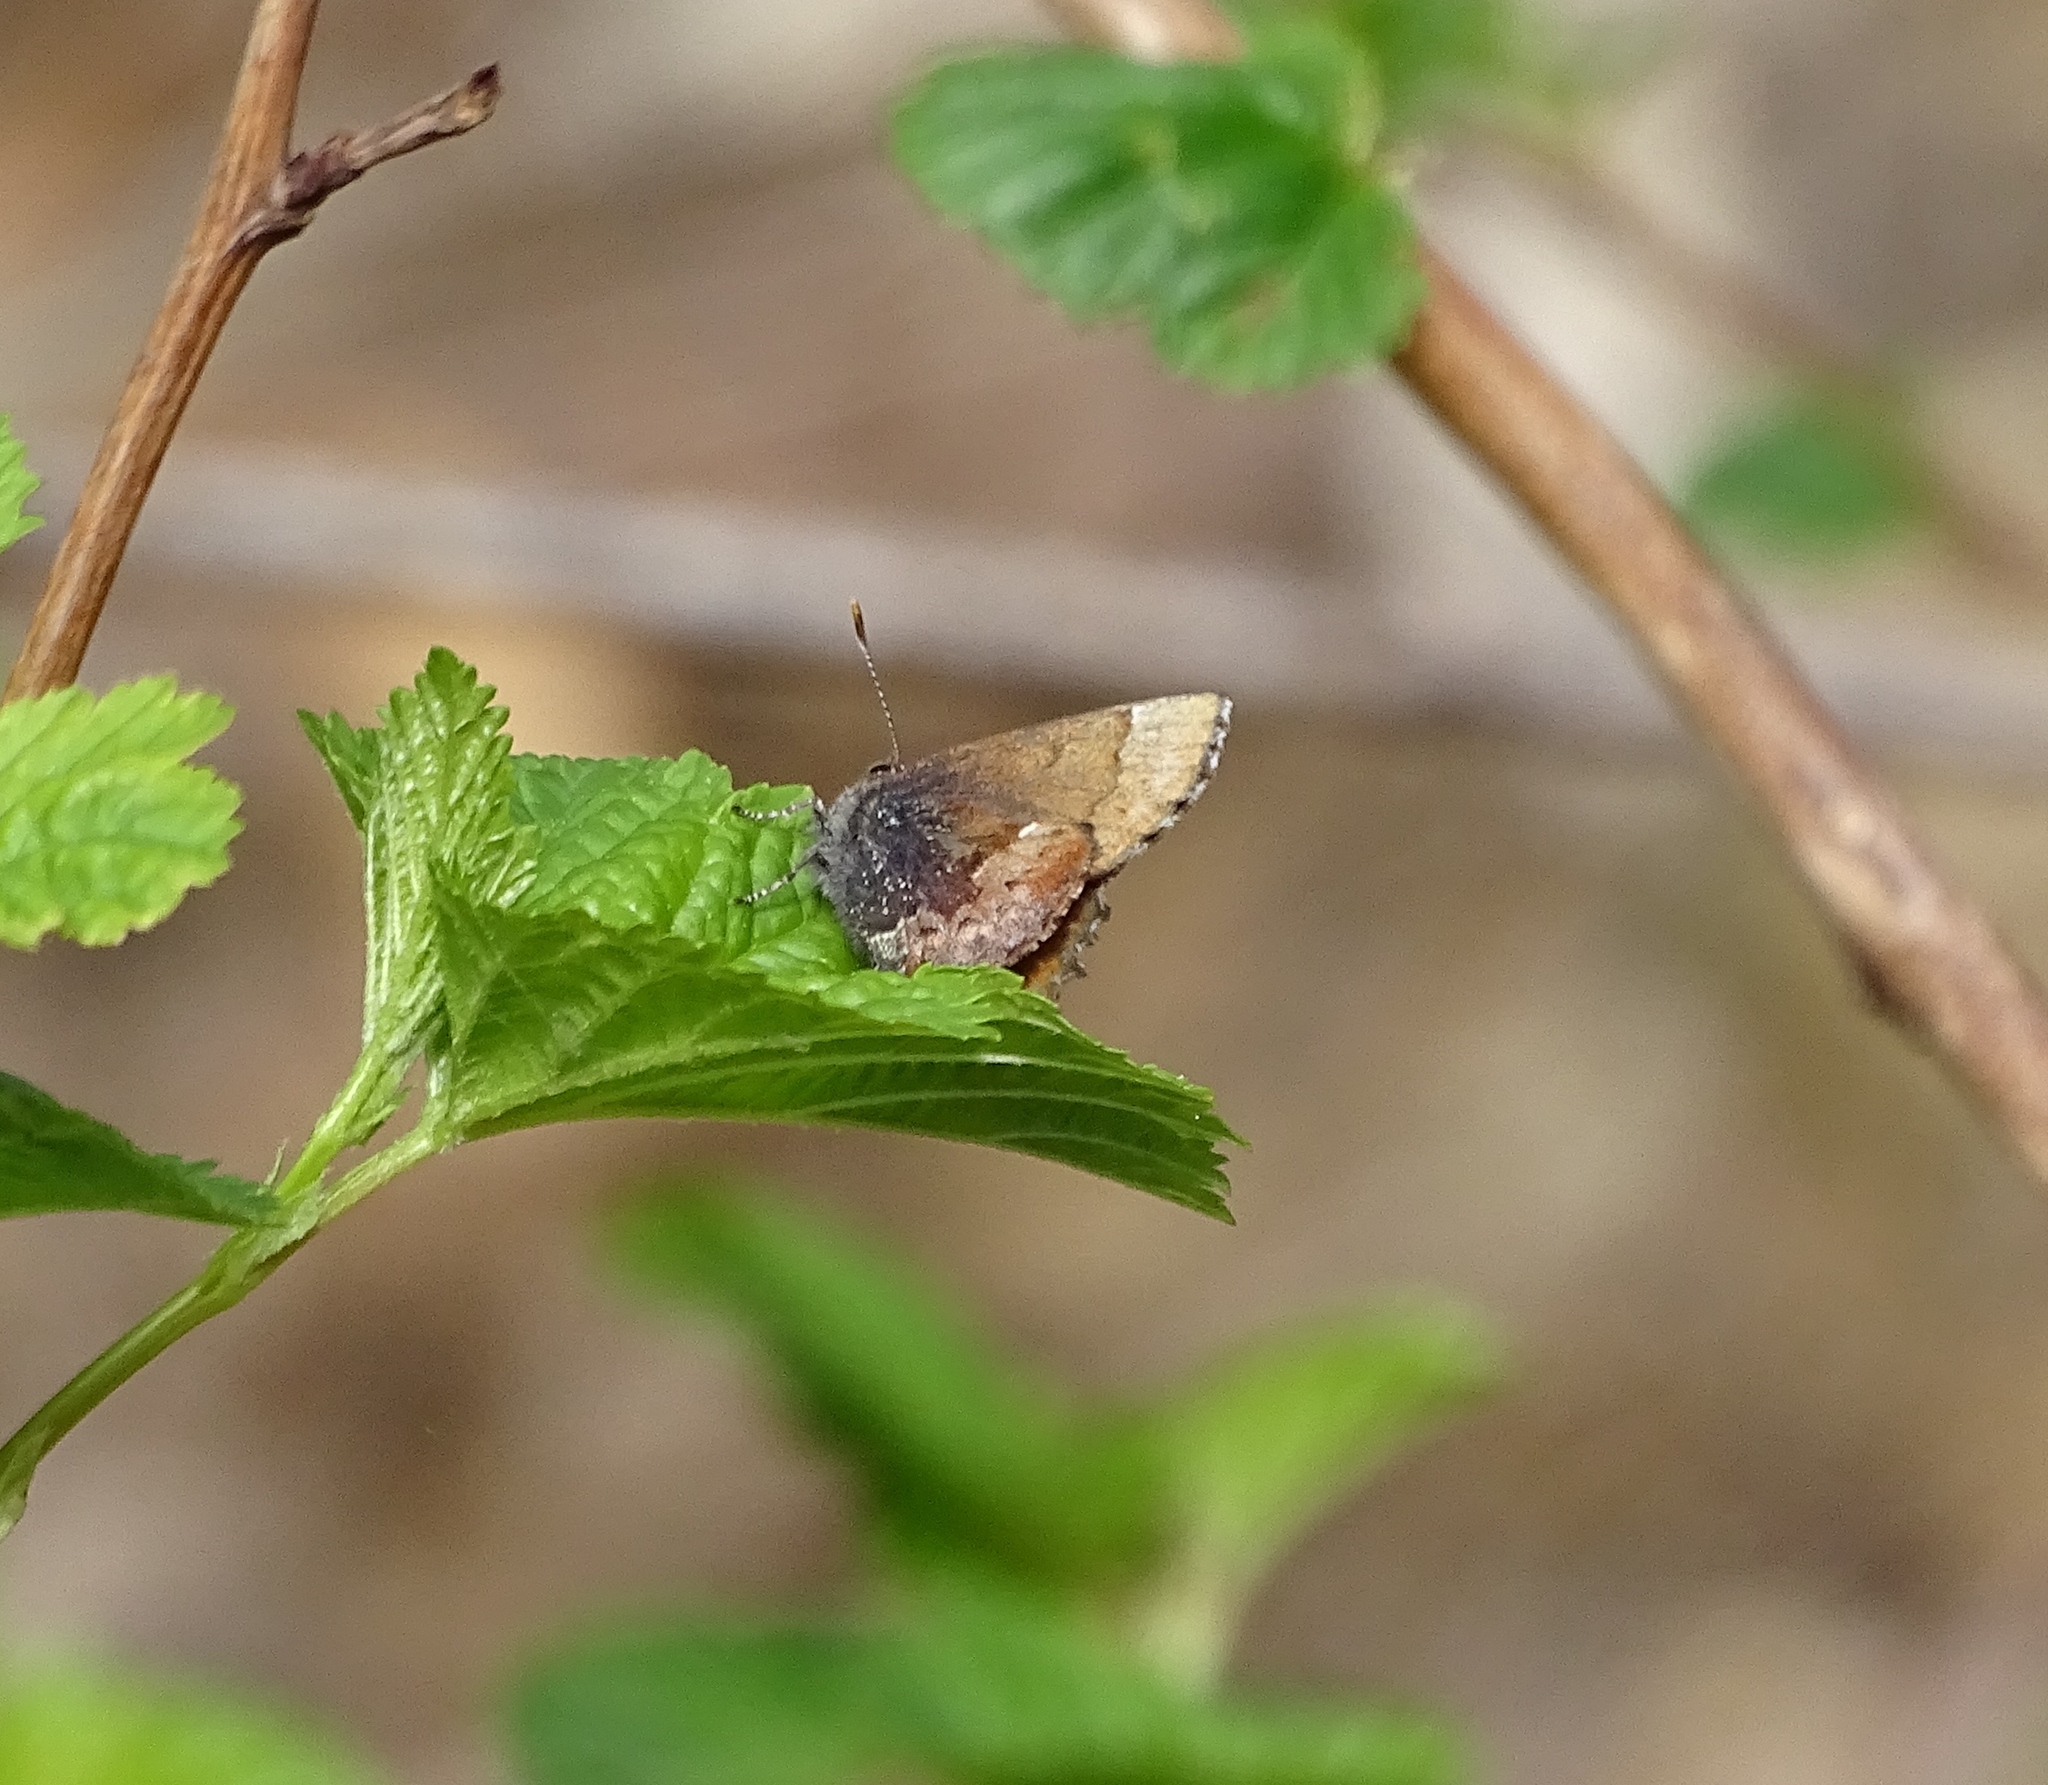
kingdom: Animalia
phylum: Arthropoda
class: Insecta
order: Lepidoptera
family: Lycaenidae
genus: Incisalia
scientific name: Incisalia henrici
